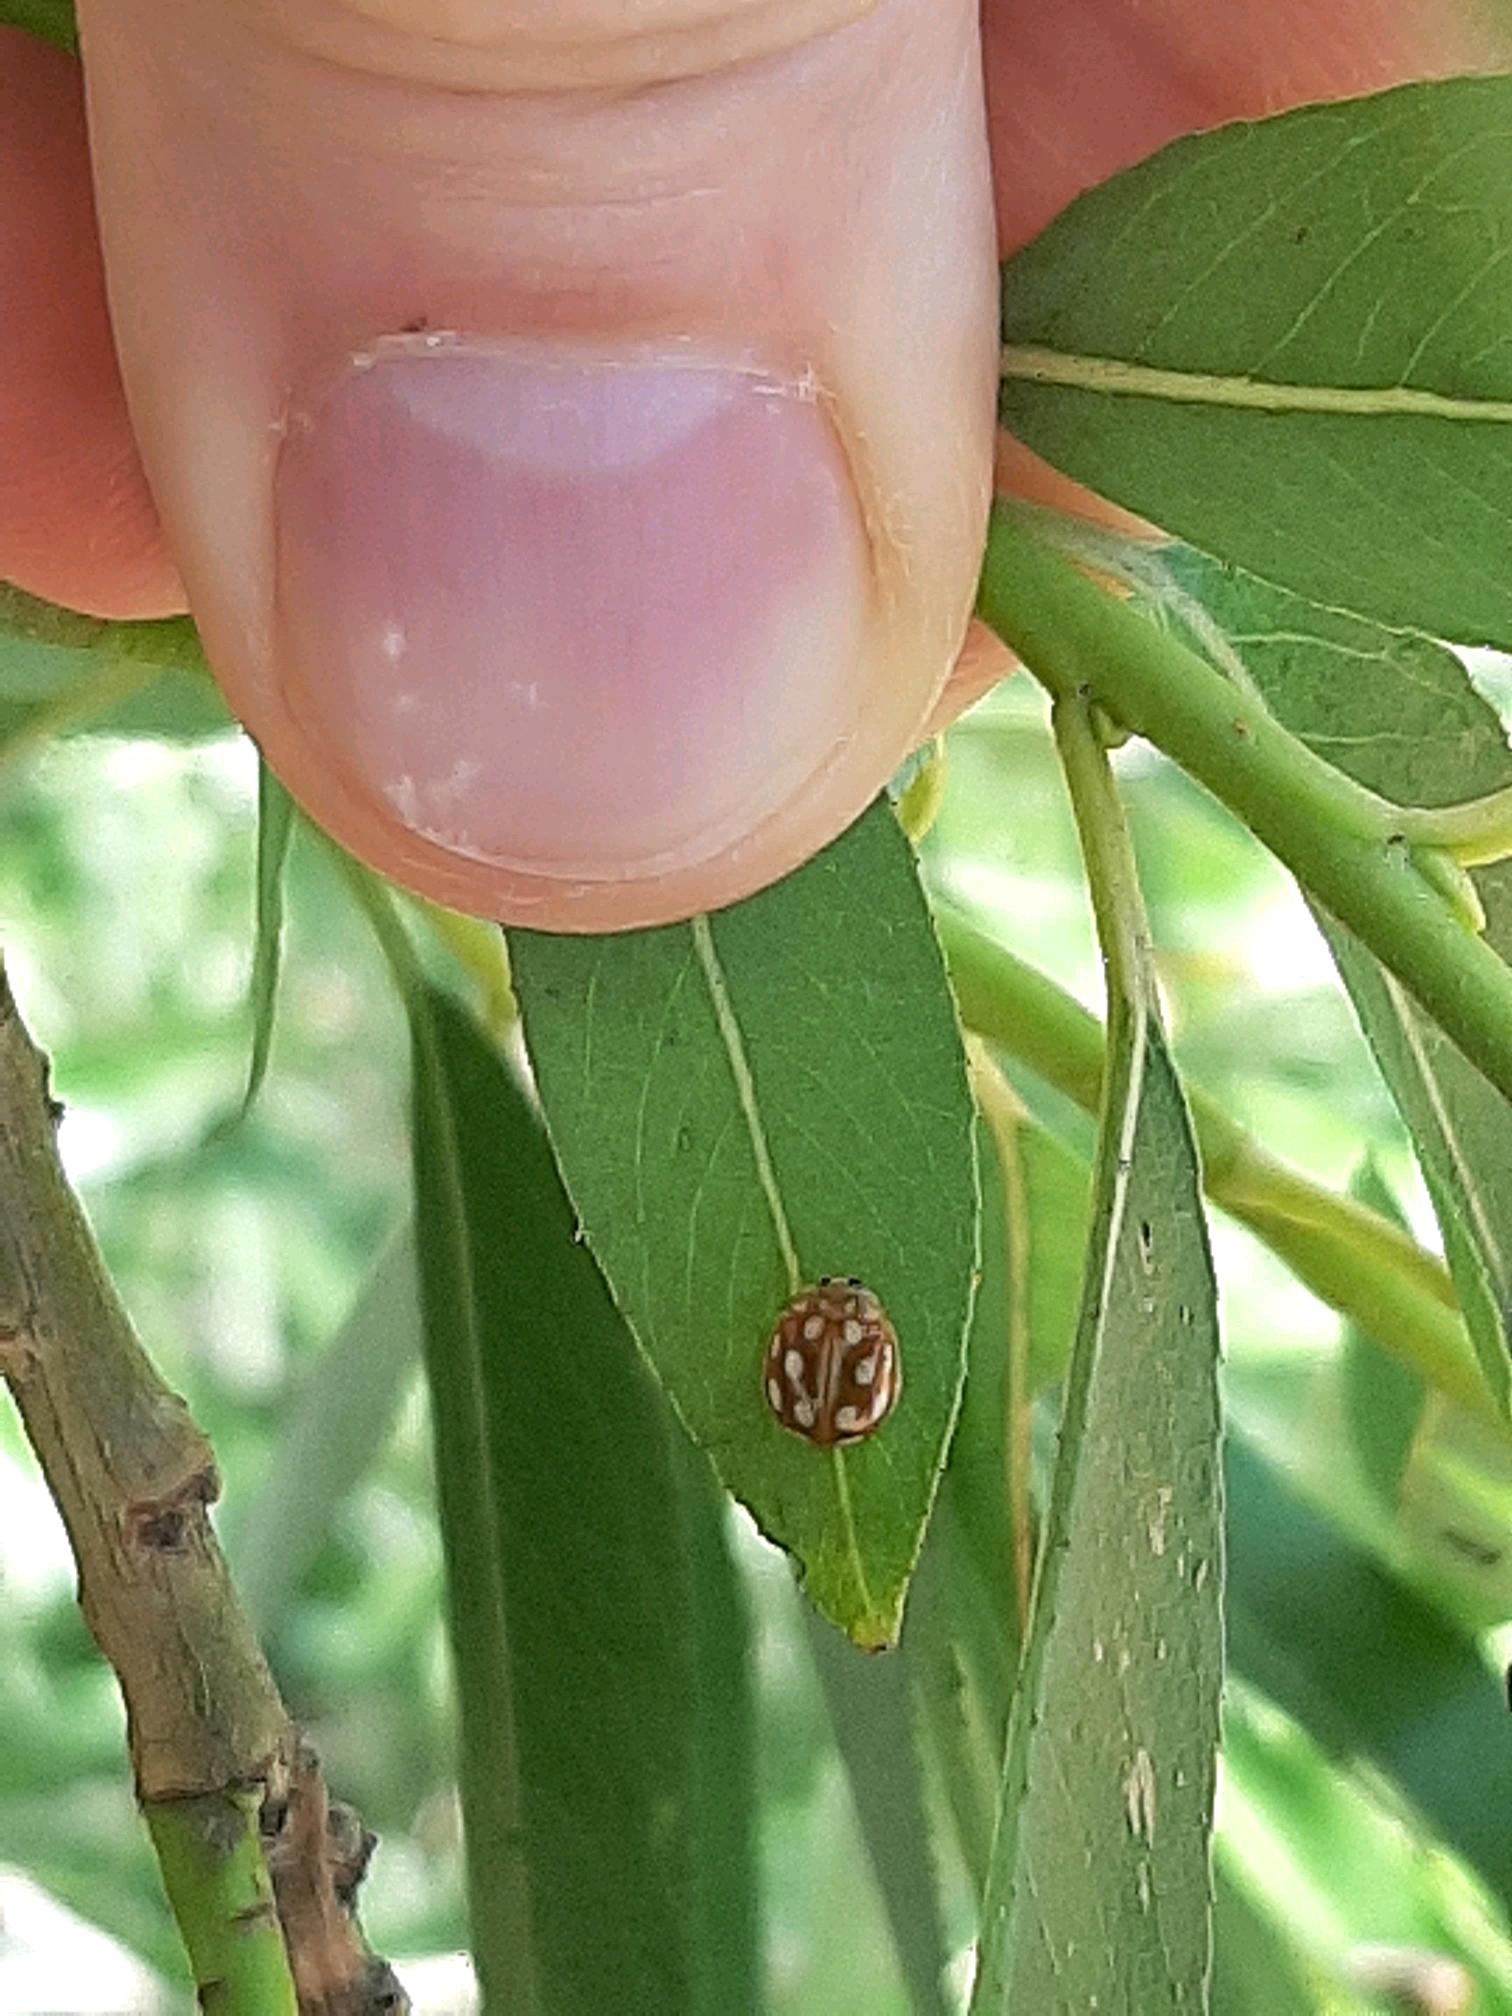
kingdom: Animalia
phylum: Arthropoda
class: Insecta
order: Coleoptera
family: Coccinellidae
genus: Calvia
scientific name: Calvia muiri
